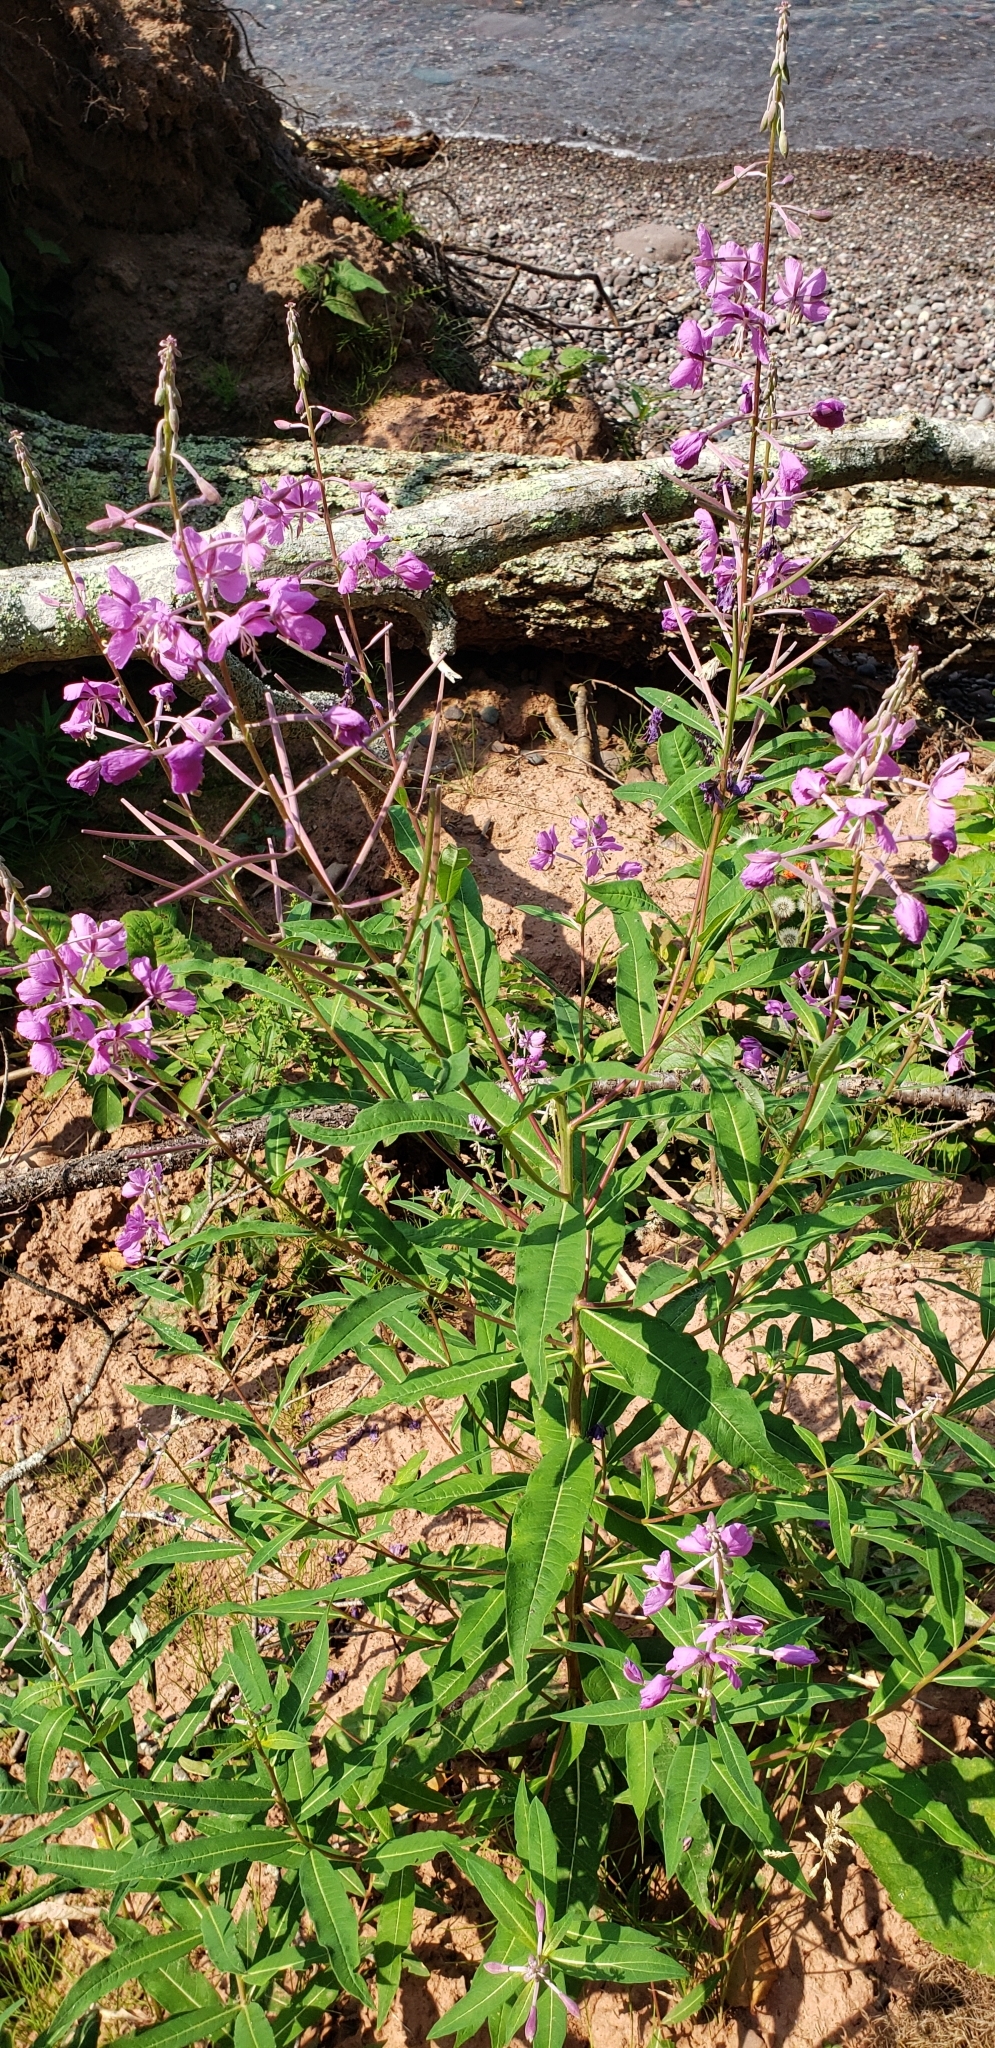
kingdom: Plantae
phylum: Tracheophyta
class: Magnoliopsida
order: Myrtales
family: Onagraceae
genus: Chamaenerion
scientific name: Chamaenerion angustifolium
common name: Fireweed
